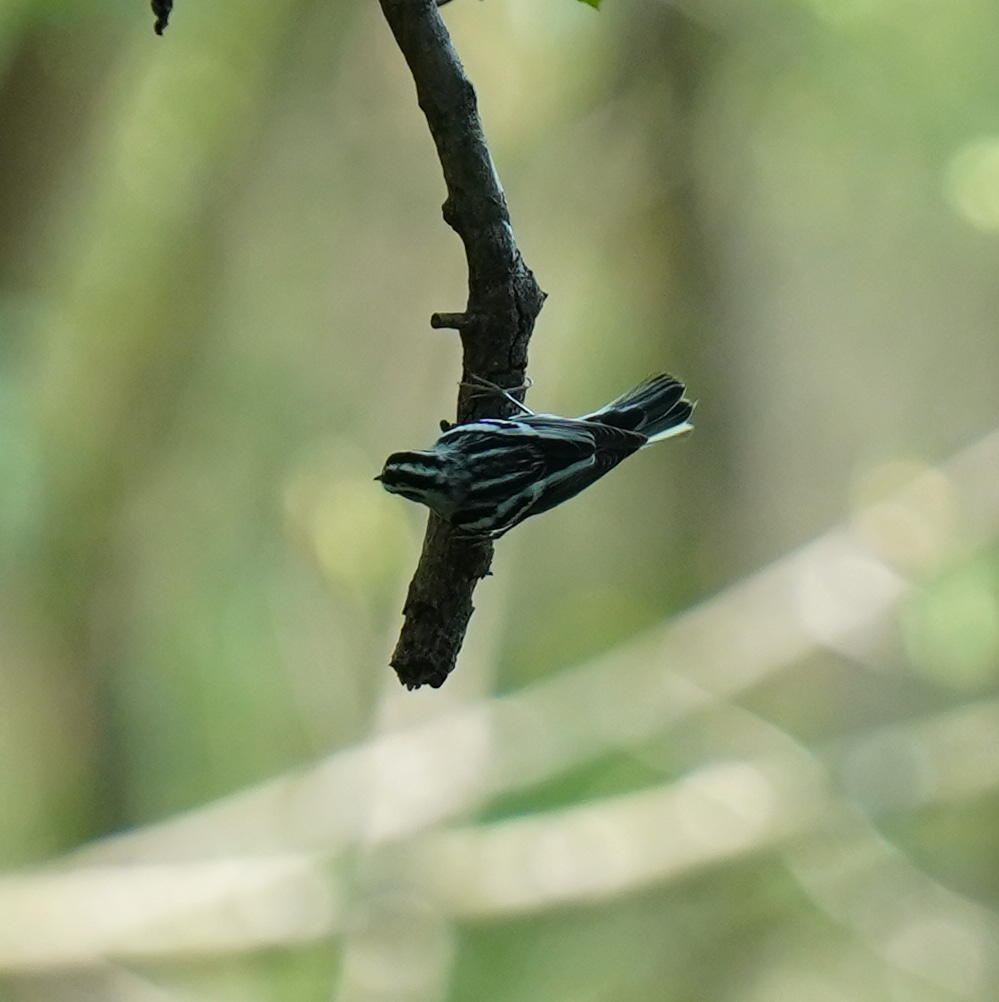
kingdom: Animalia
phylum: Chordata
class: Aves
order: Passeriformes
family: Parulidae
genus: Mniotilta
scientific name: Mniotilta varia
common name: Black-and-white warbler
